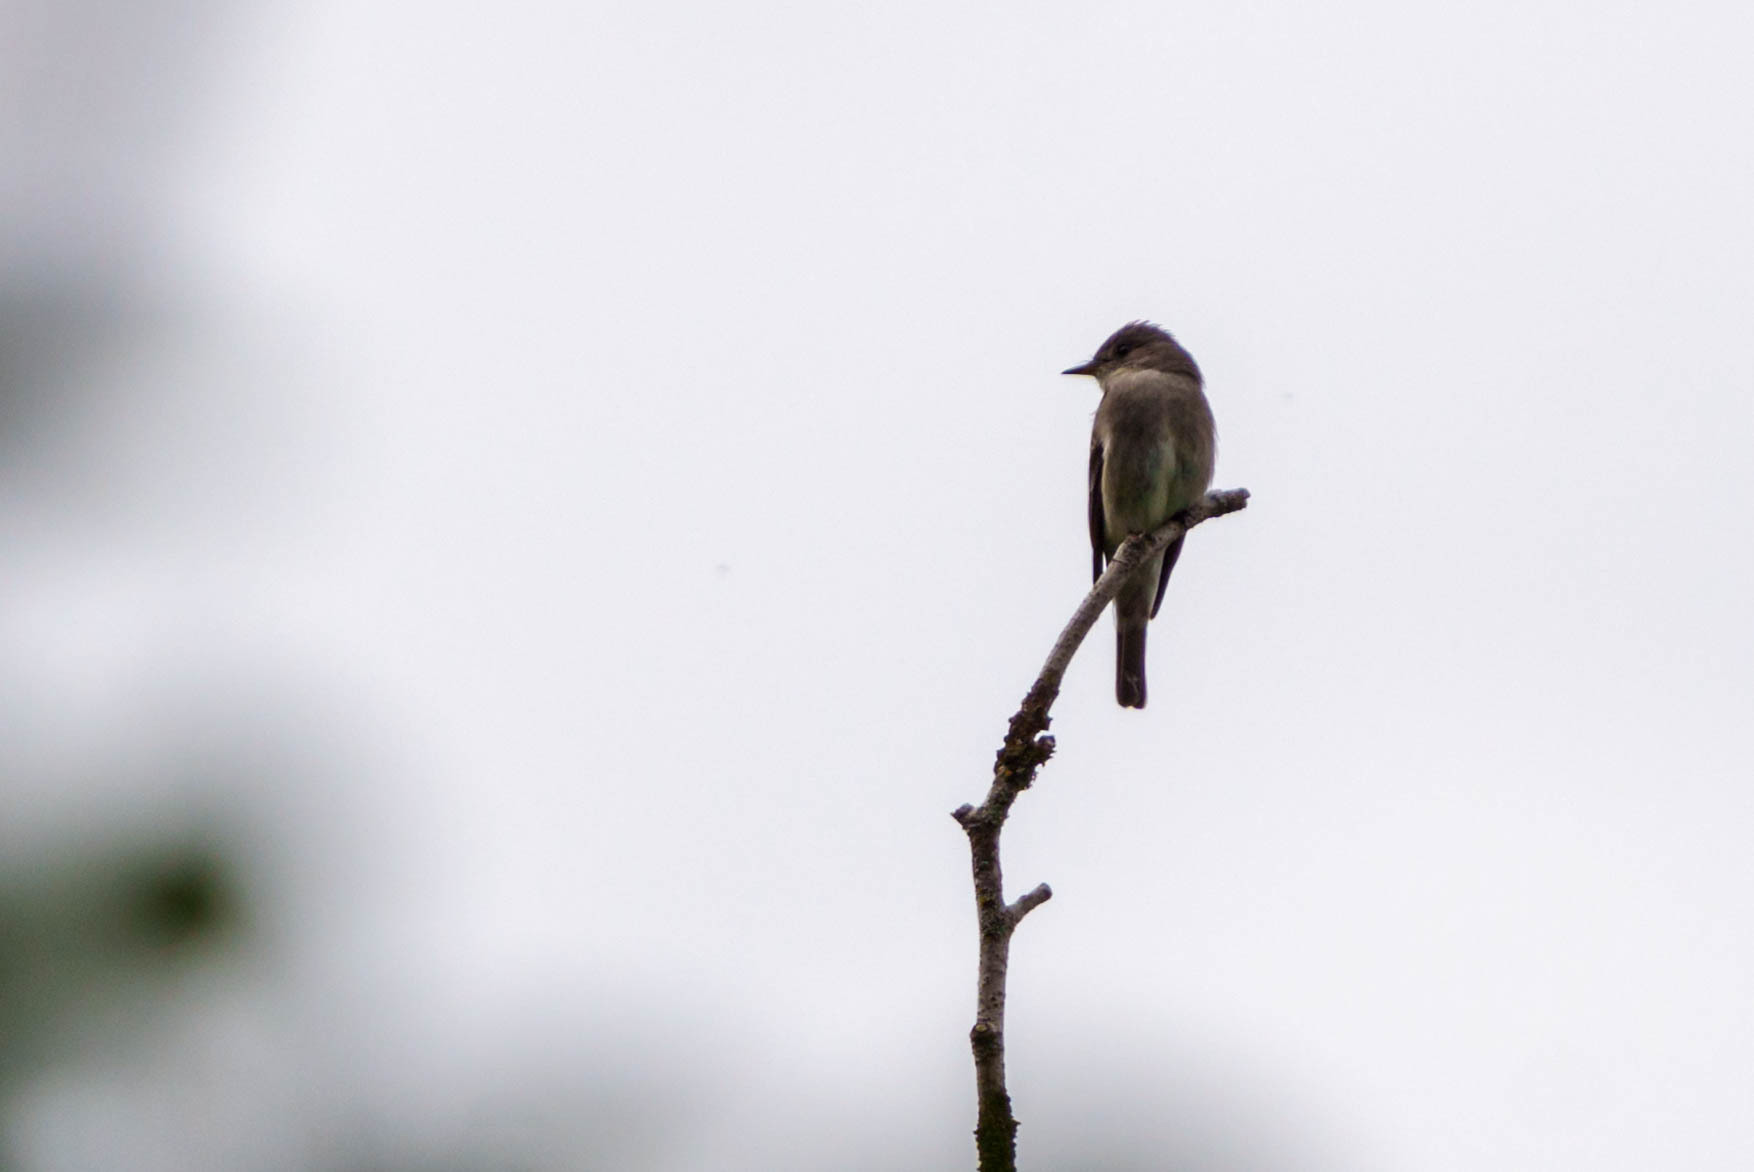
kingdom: Animalia
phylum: Chordata
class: Aves
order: Passeriformes
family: Tyrannidae
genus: Contopus
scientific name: Contopus sordidulus
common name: Western wood-pewee
